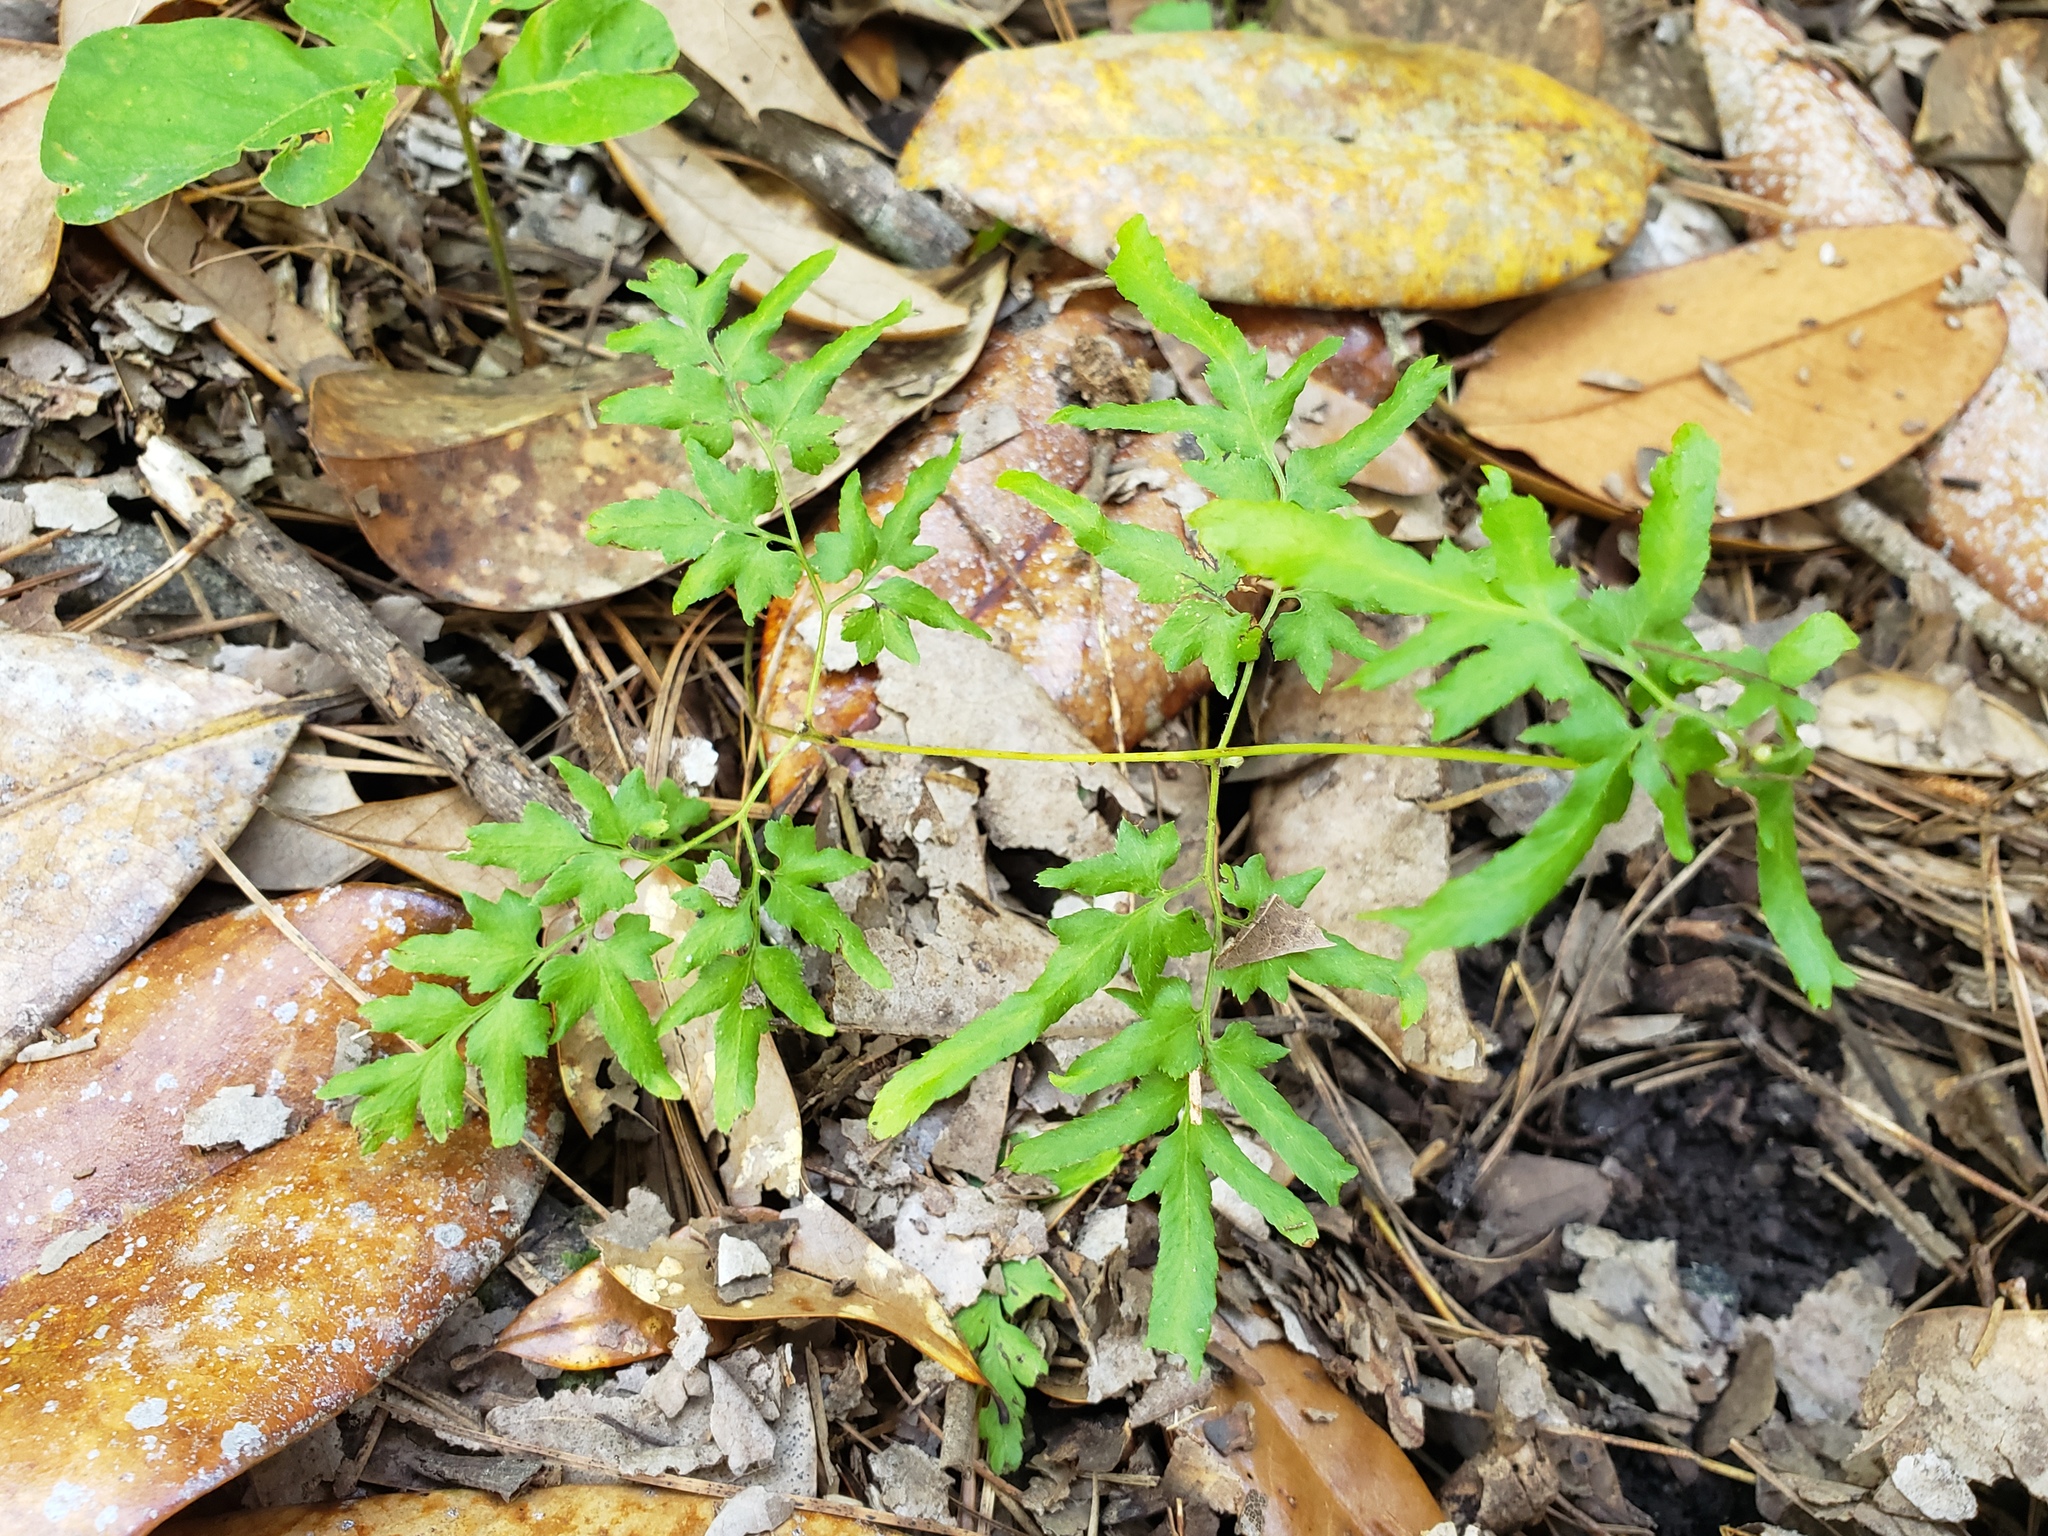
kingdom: Plantae
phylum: Tracheophyta
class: Polypodiopsida
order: Schizaeales
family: Lygodiaceae
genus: Lygodium
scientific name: Lygodium japonicum
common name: Japanese climbing fern
